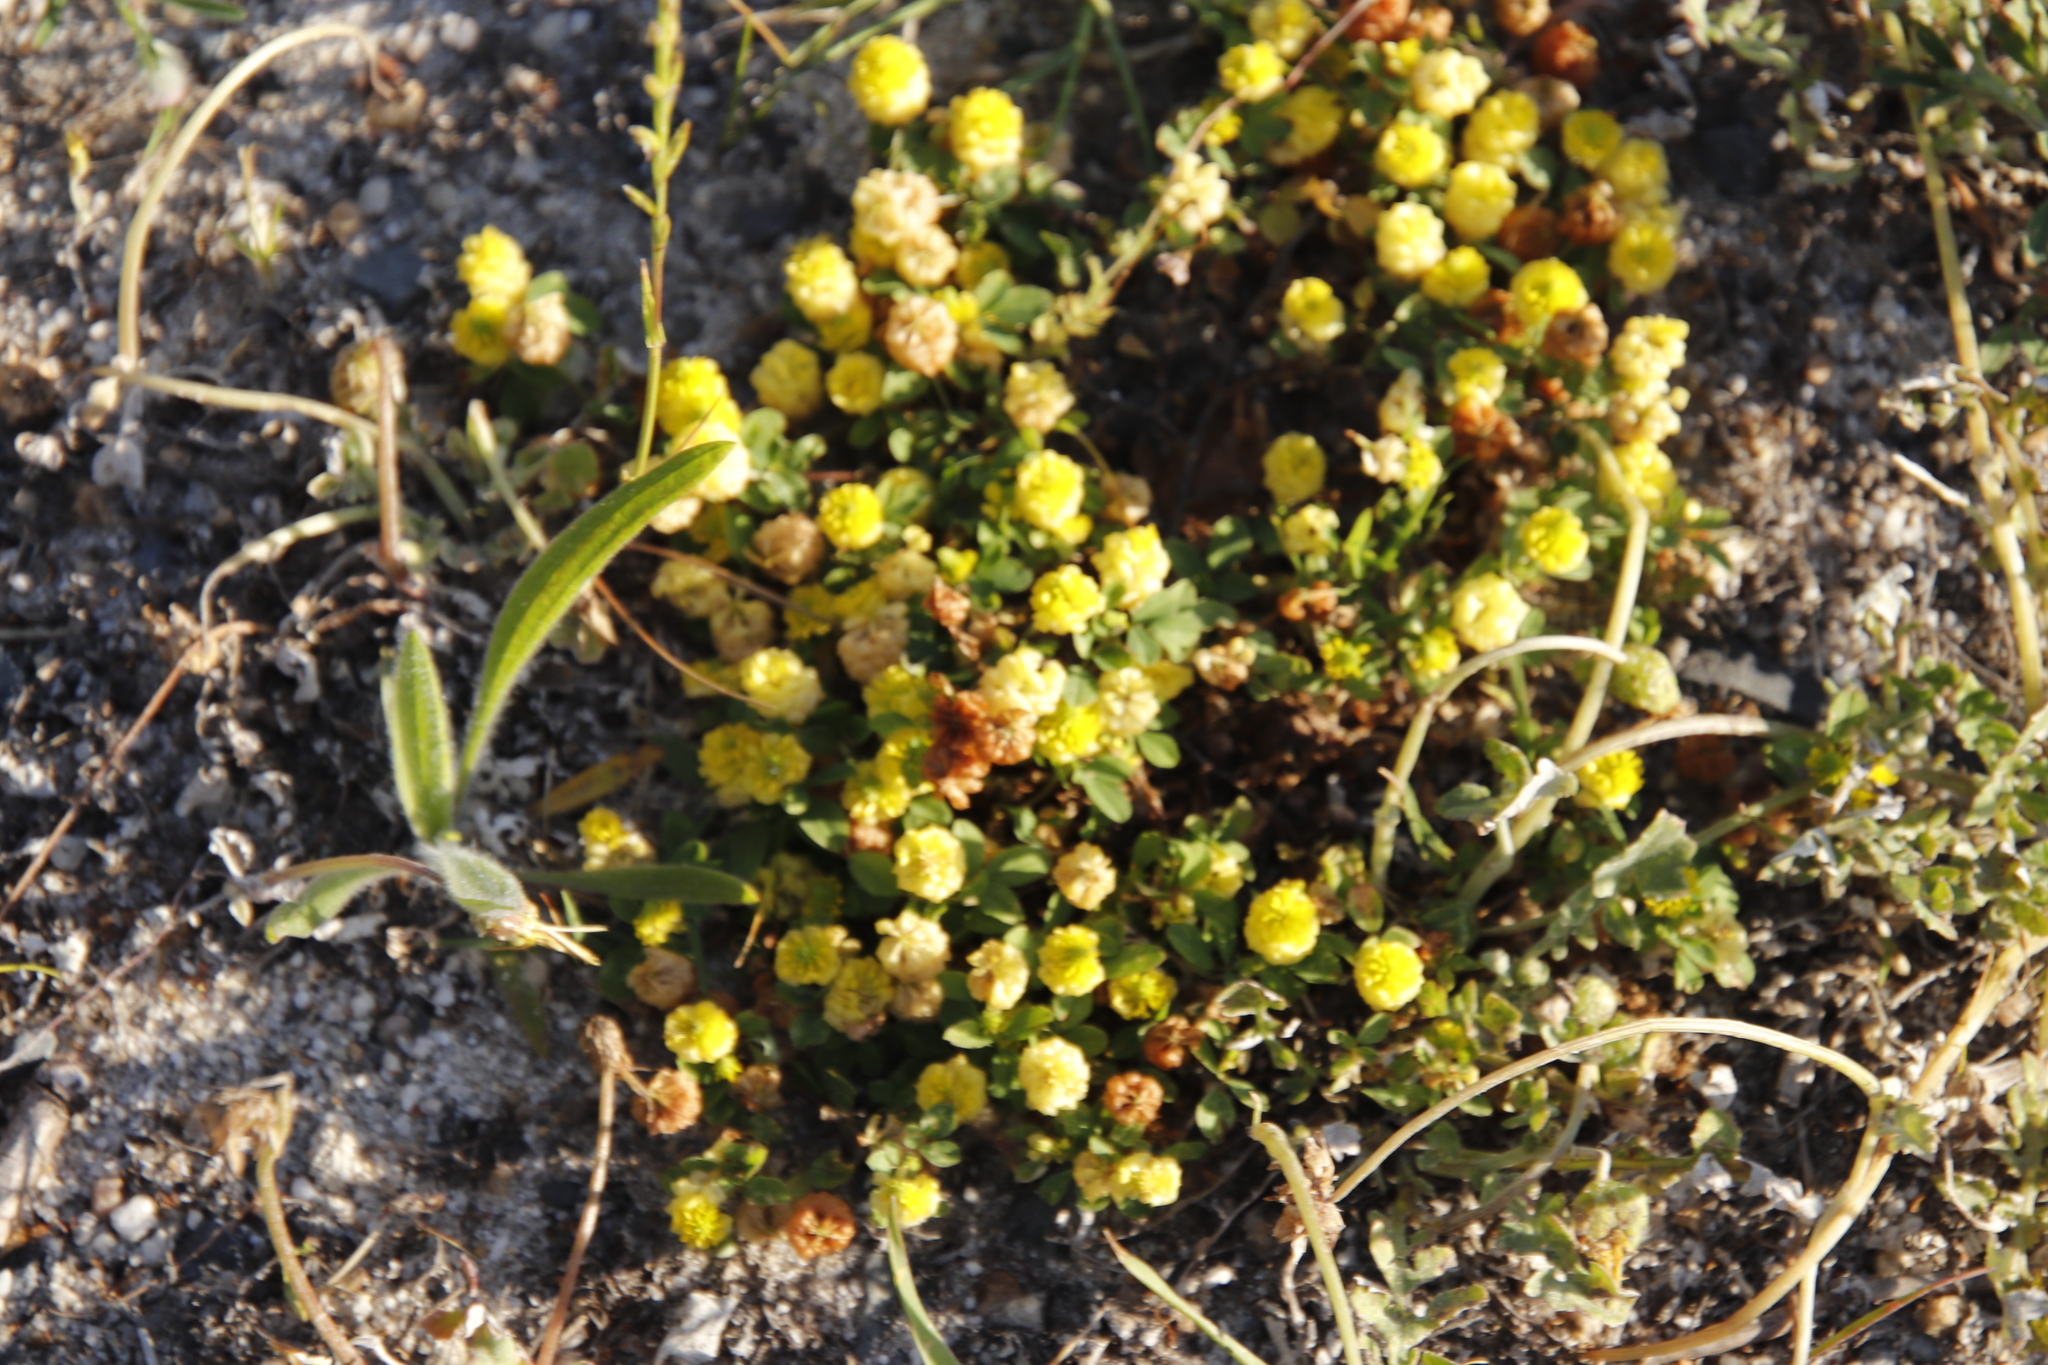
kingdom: Plantae
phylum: Tracheophyta
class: Magnoliopsida
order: Fabales
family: Fabaceae
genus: Trifolium
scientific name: Trifolium campestre
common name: Field clover
